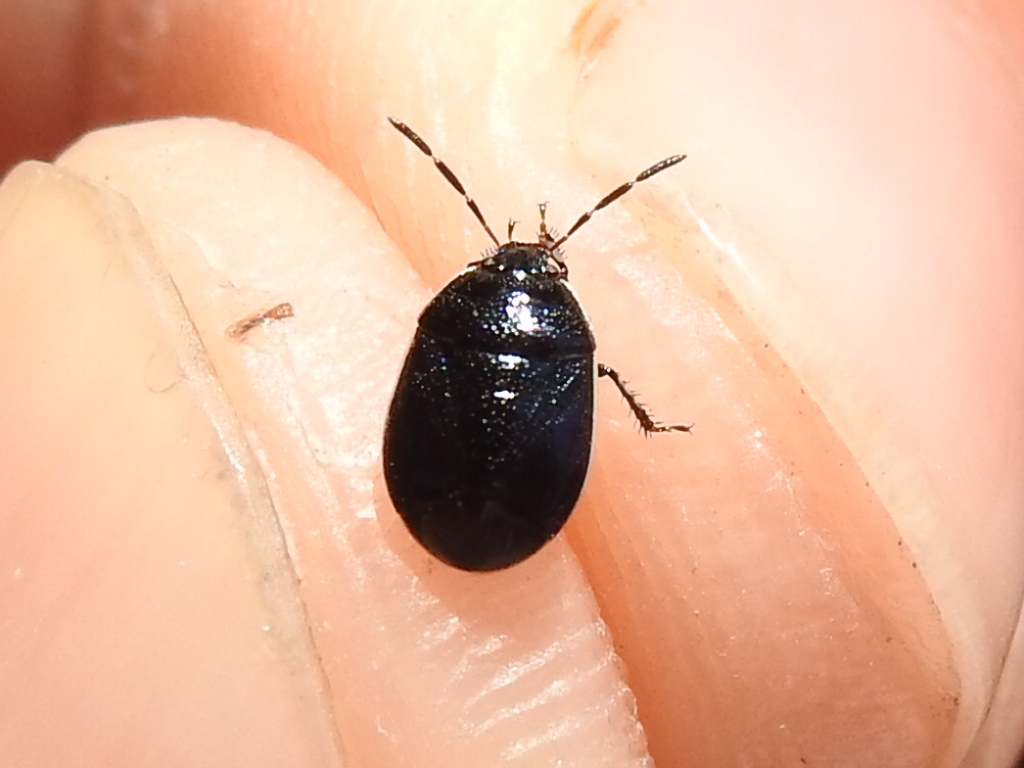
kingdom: Animalia
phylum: Arthropoda
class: Insecta
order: Hemiptera
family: Cydnidae
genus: Sehirus
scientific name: Sehirus cinctus
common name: White-margined burrower bug
